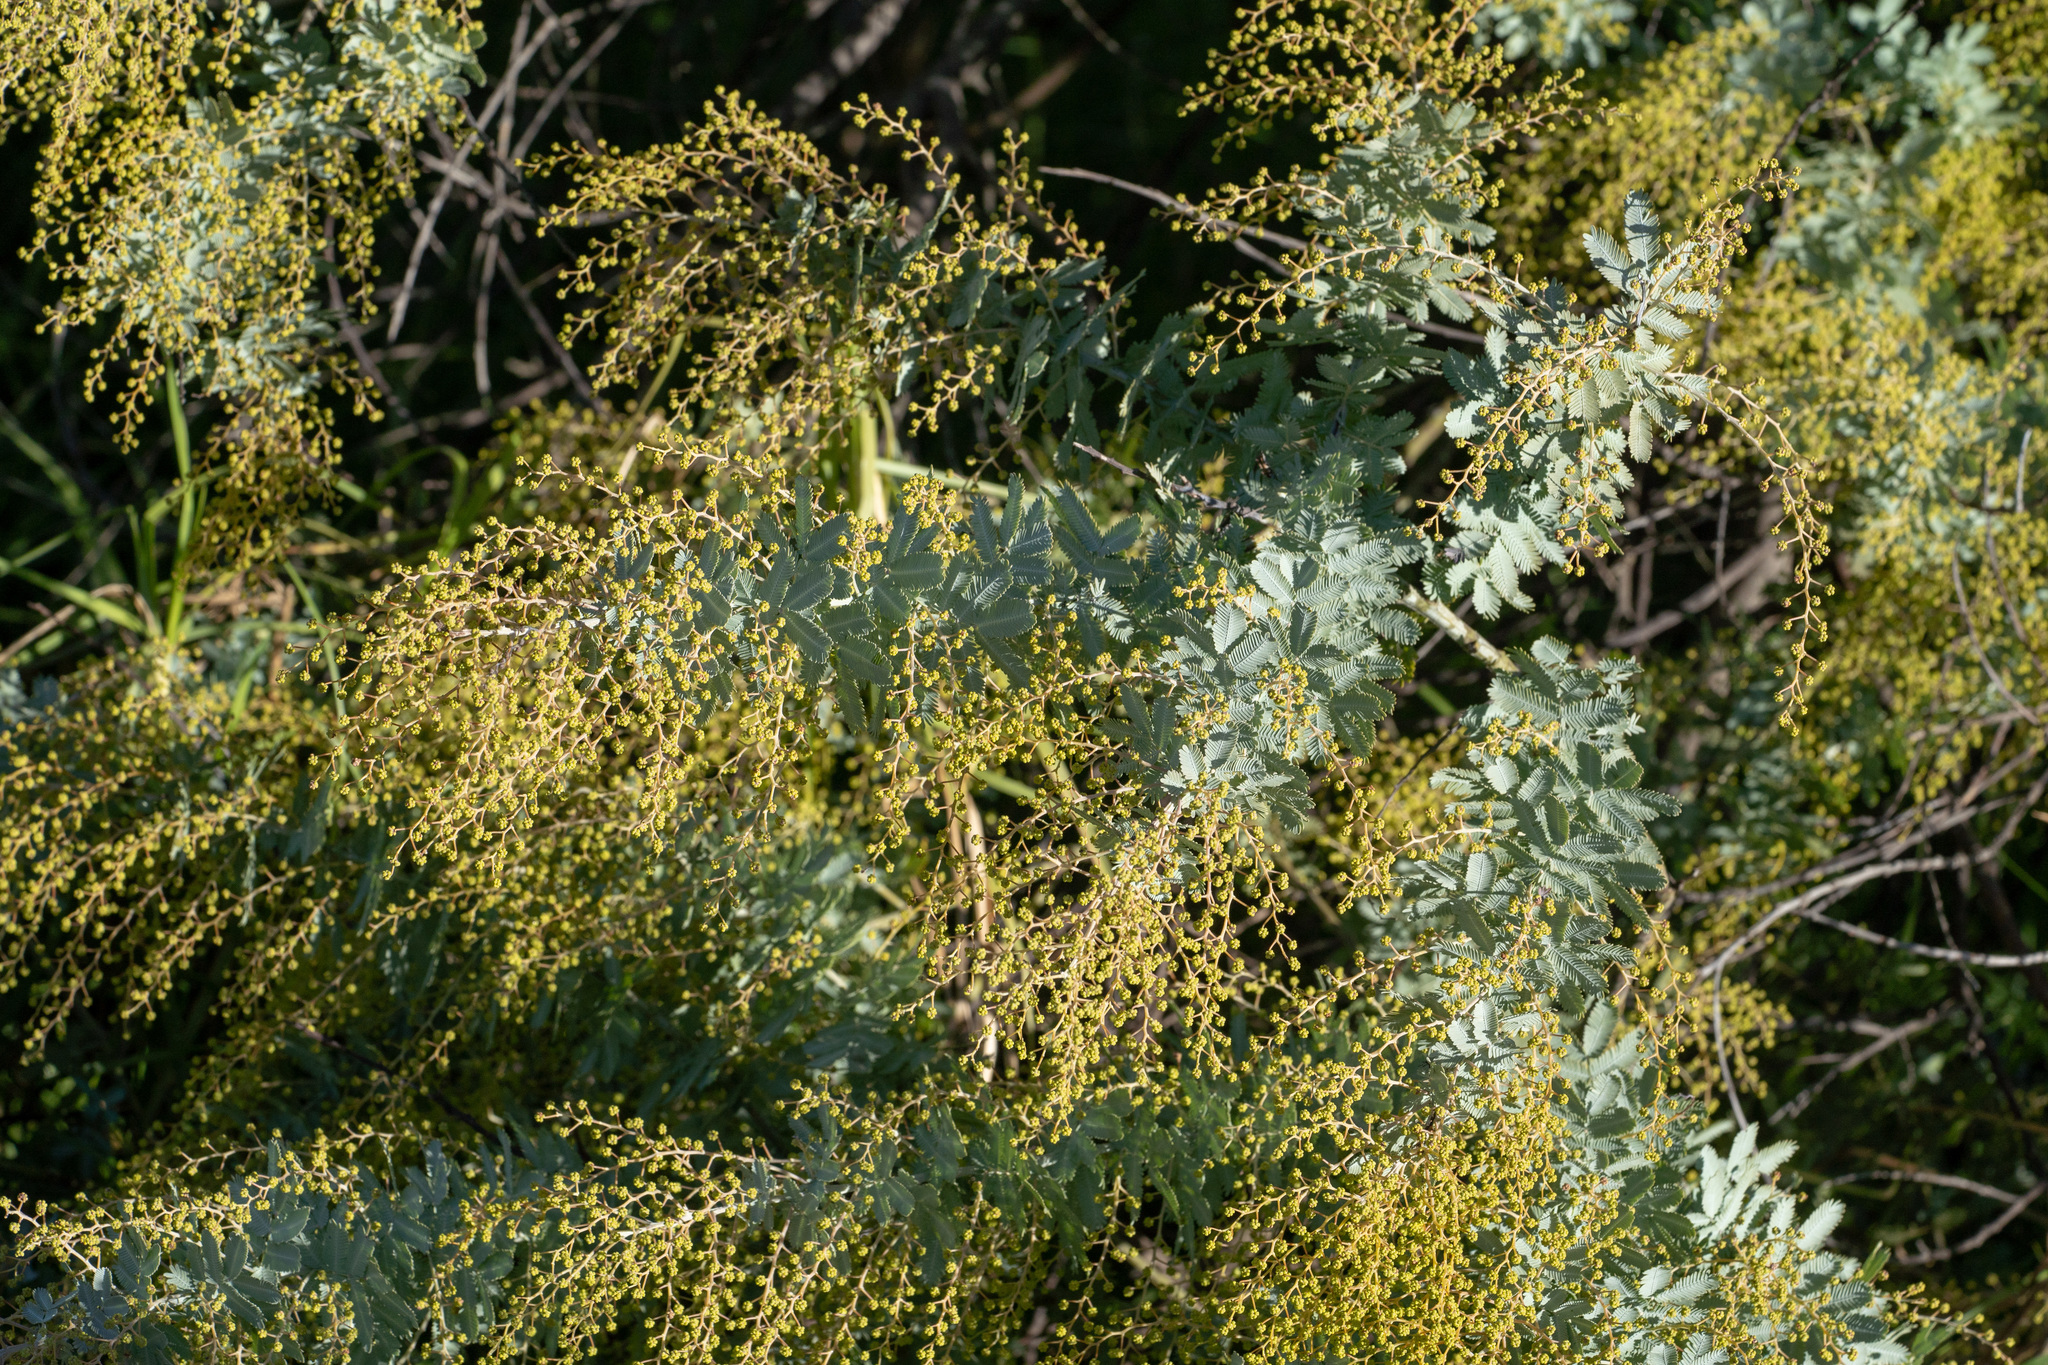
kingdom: Plantae
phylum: Tracheophyta
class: Magnoliopsida
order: Fabales
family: Fabaceae
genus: Acacia
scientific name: Acacia baileyana
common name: Cootamundra wattle
